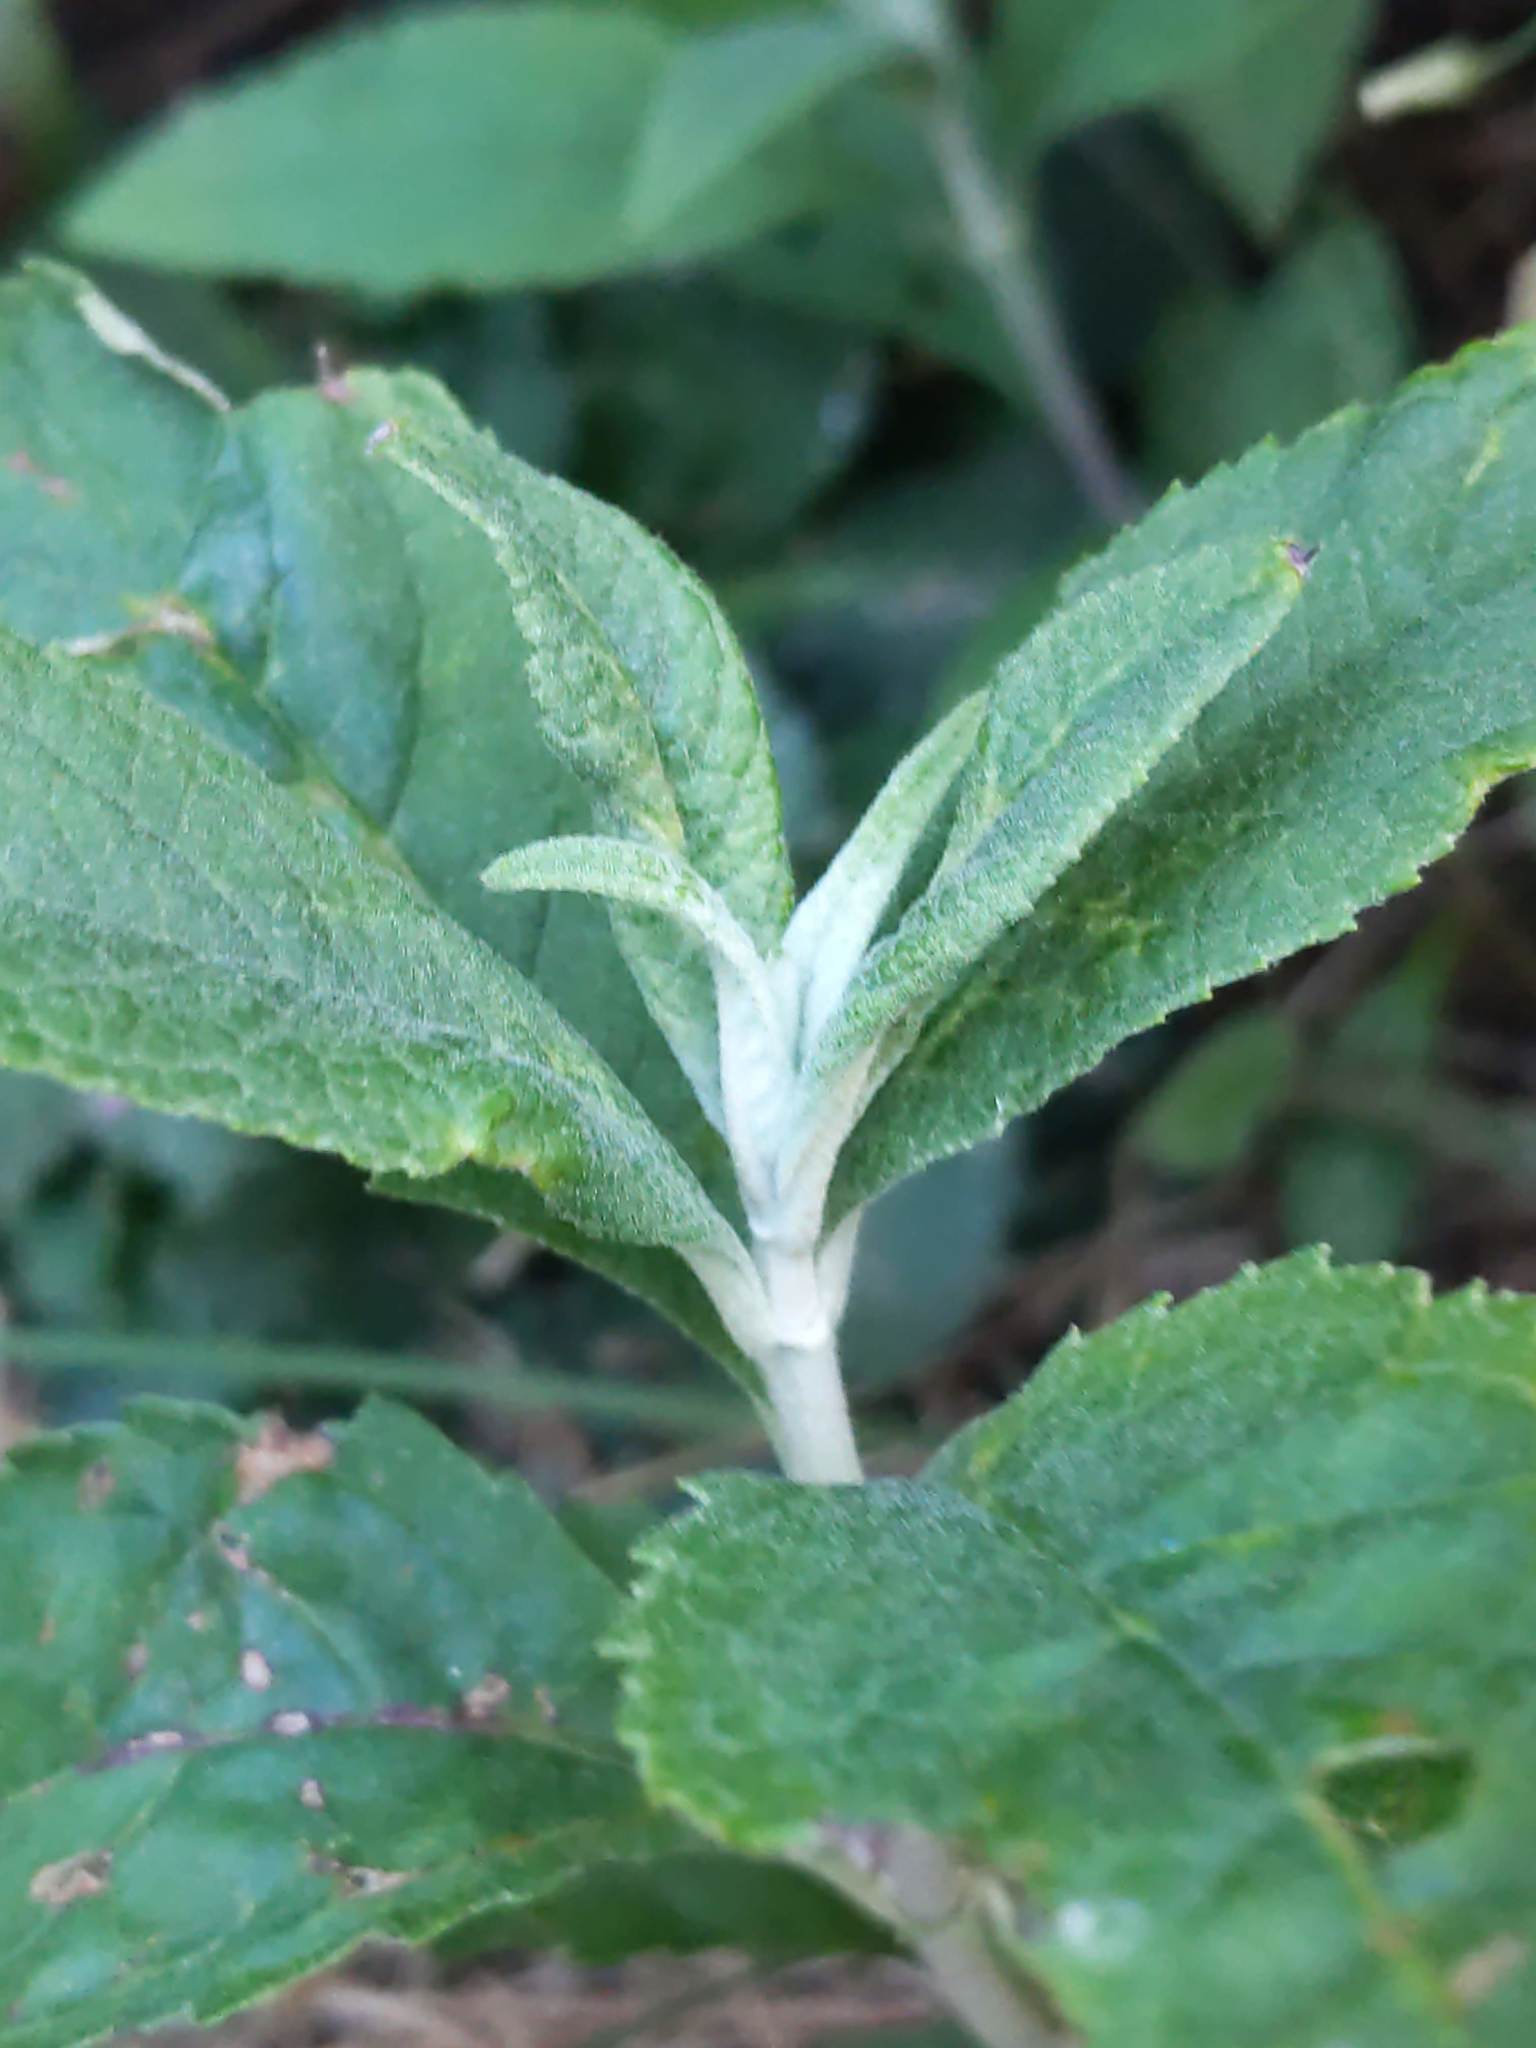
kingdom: Plantae
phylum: Tracheophyta
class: Magnoliopsida
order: Lamiales
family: Scrophulariaceae
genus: Buddleja
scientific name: Buddleja davidii
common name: Butterfly-bush
